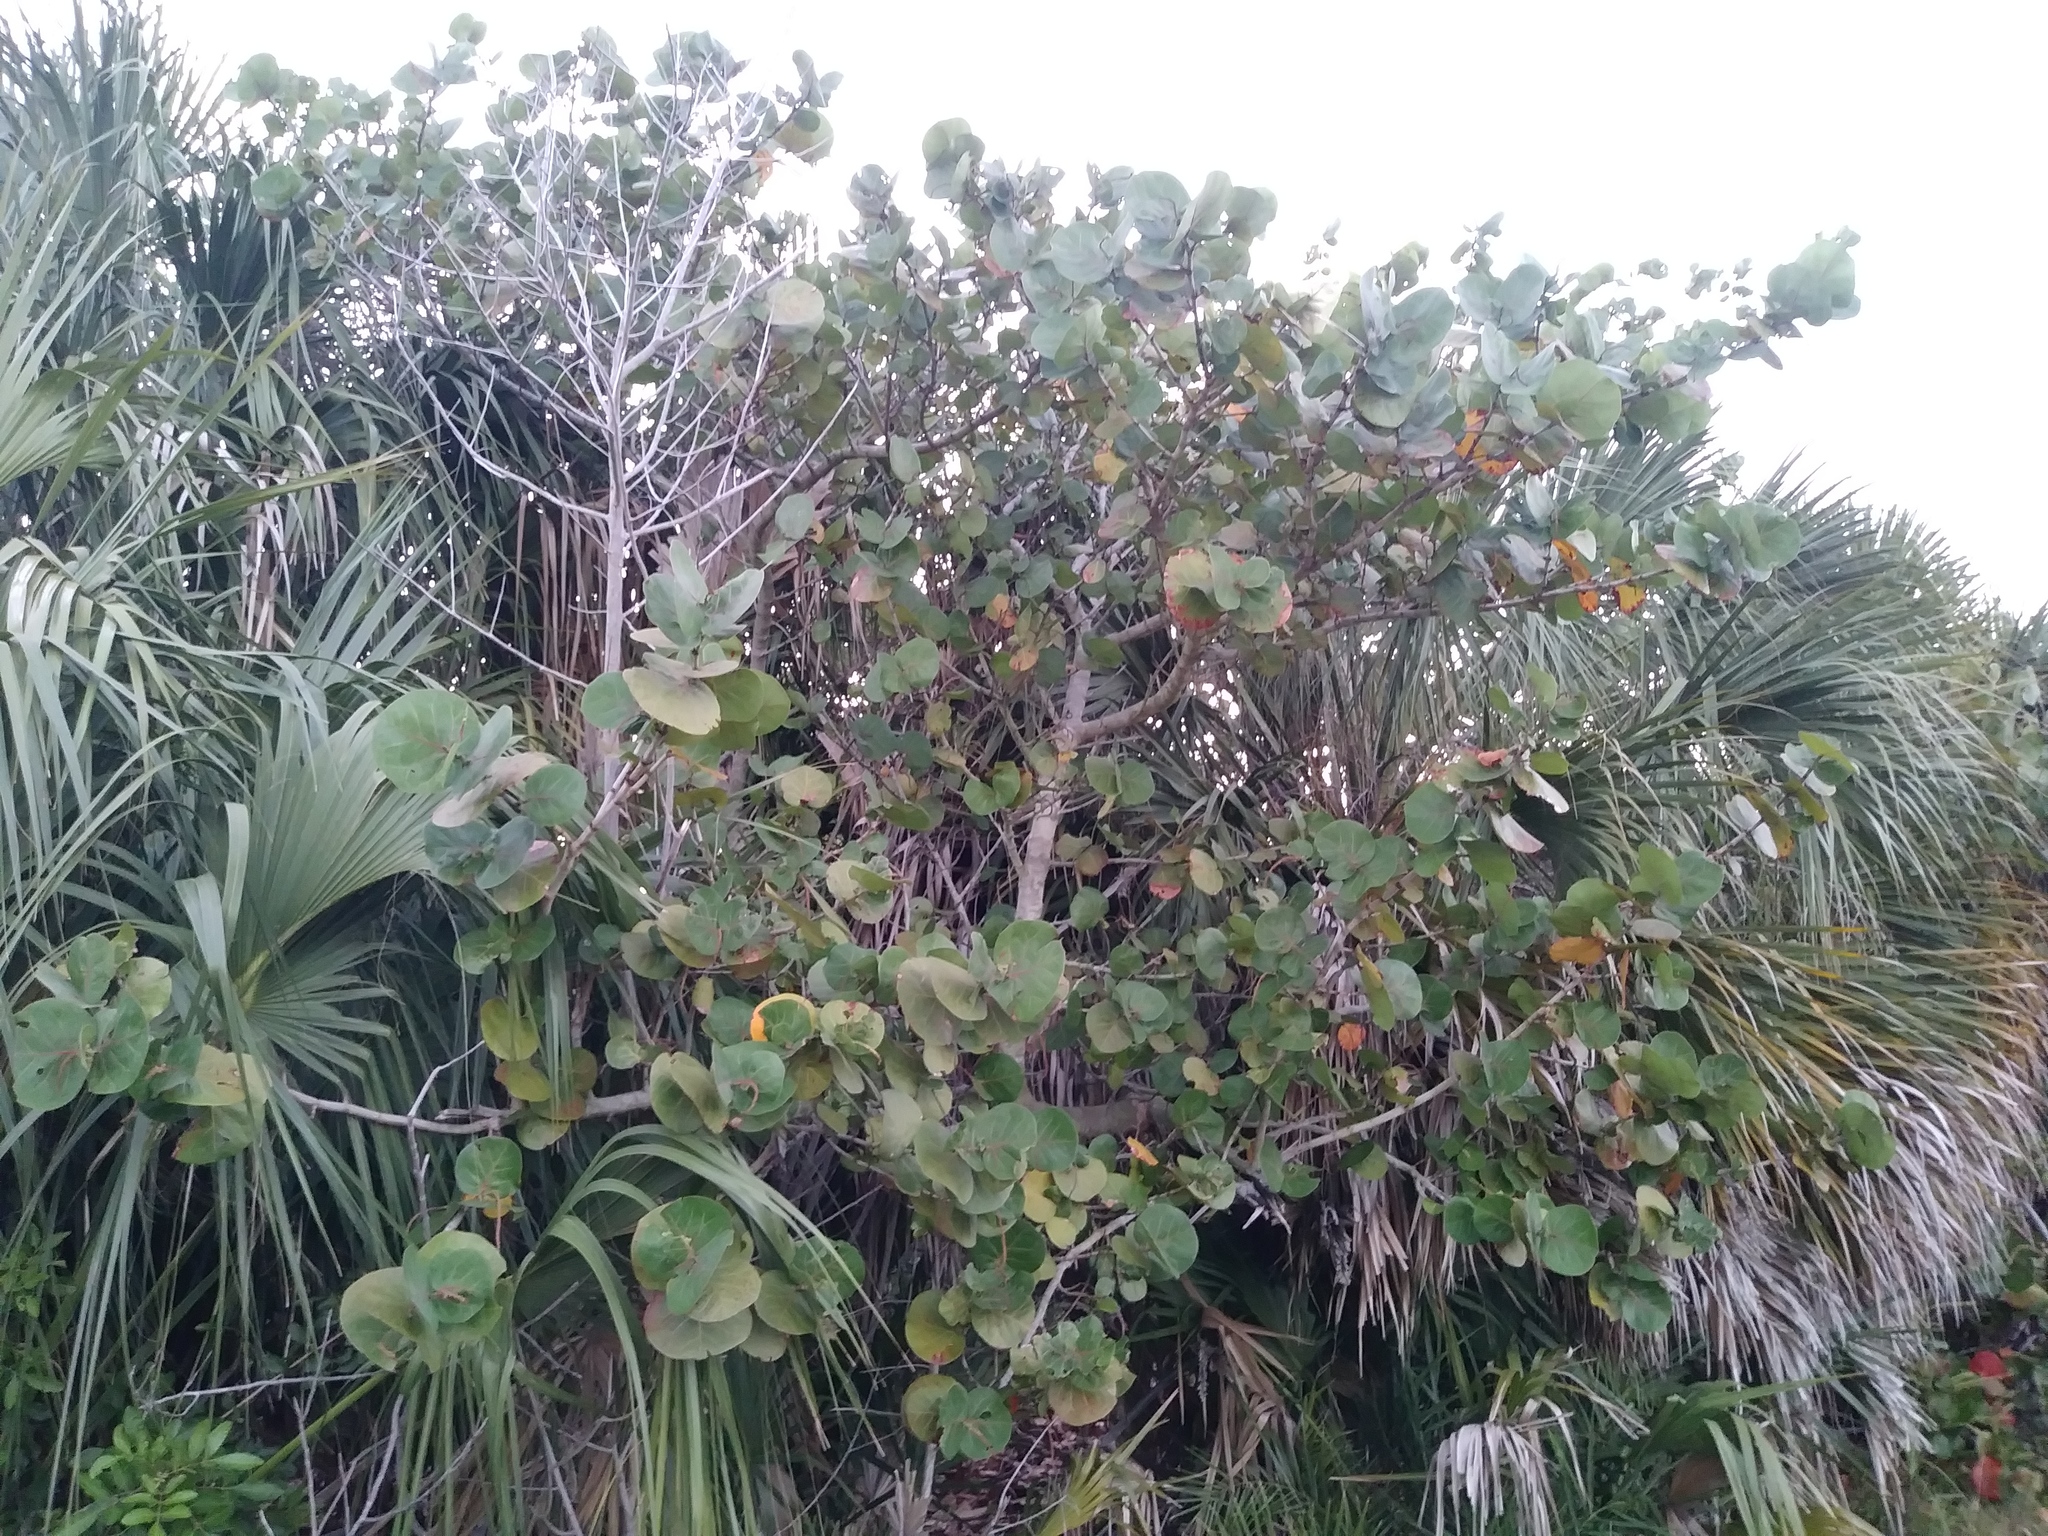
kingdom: Plantae
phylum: Tracheophyta
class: Magnoliopsida
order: Caryophyllales
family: Polygonaceae
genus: Coccoloba
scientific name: Coccoloba uvifera
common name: Seagrape
